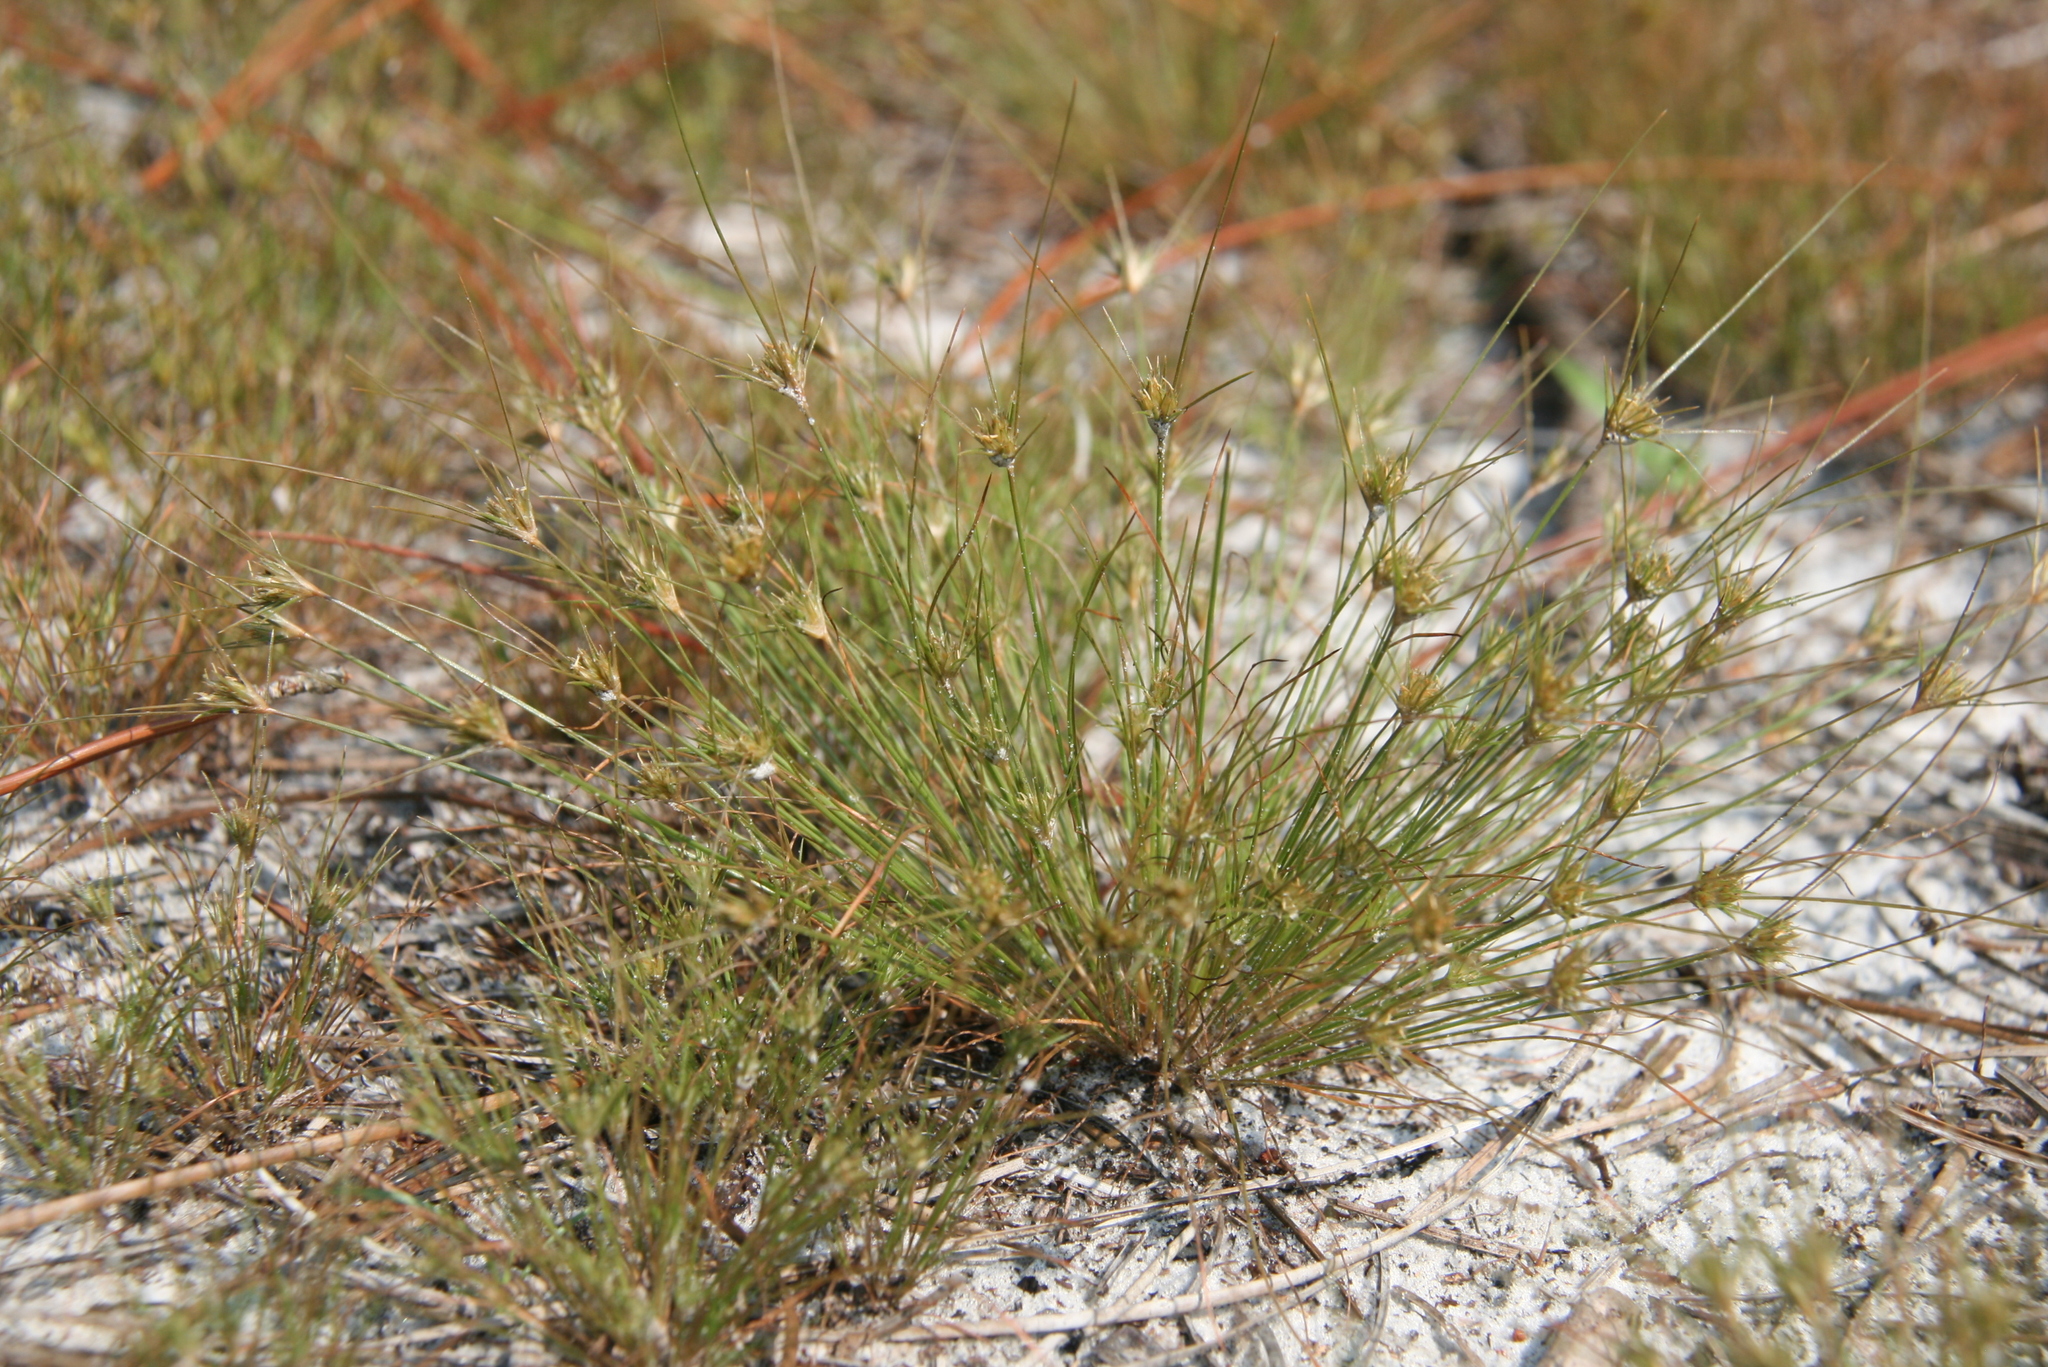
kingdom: Plantae
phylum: Tracheophyta
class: Liliopsida
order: Poales
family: Cyperaceae
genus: Bulbostylis
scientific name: Bulbostylis stenophylla
